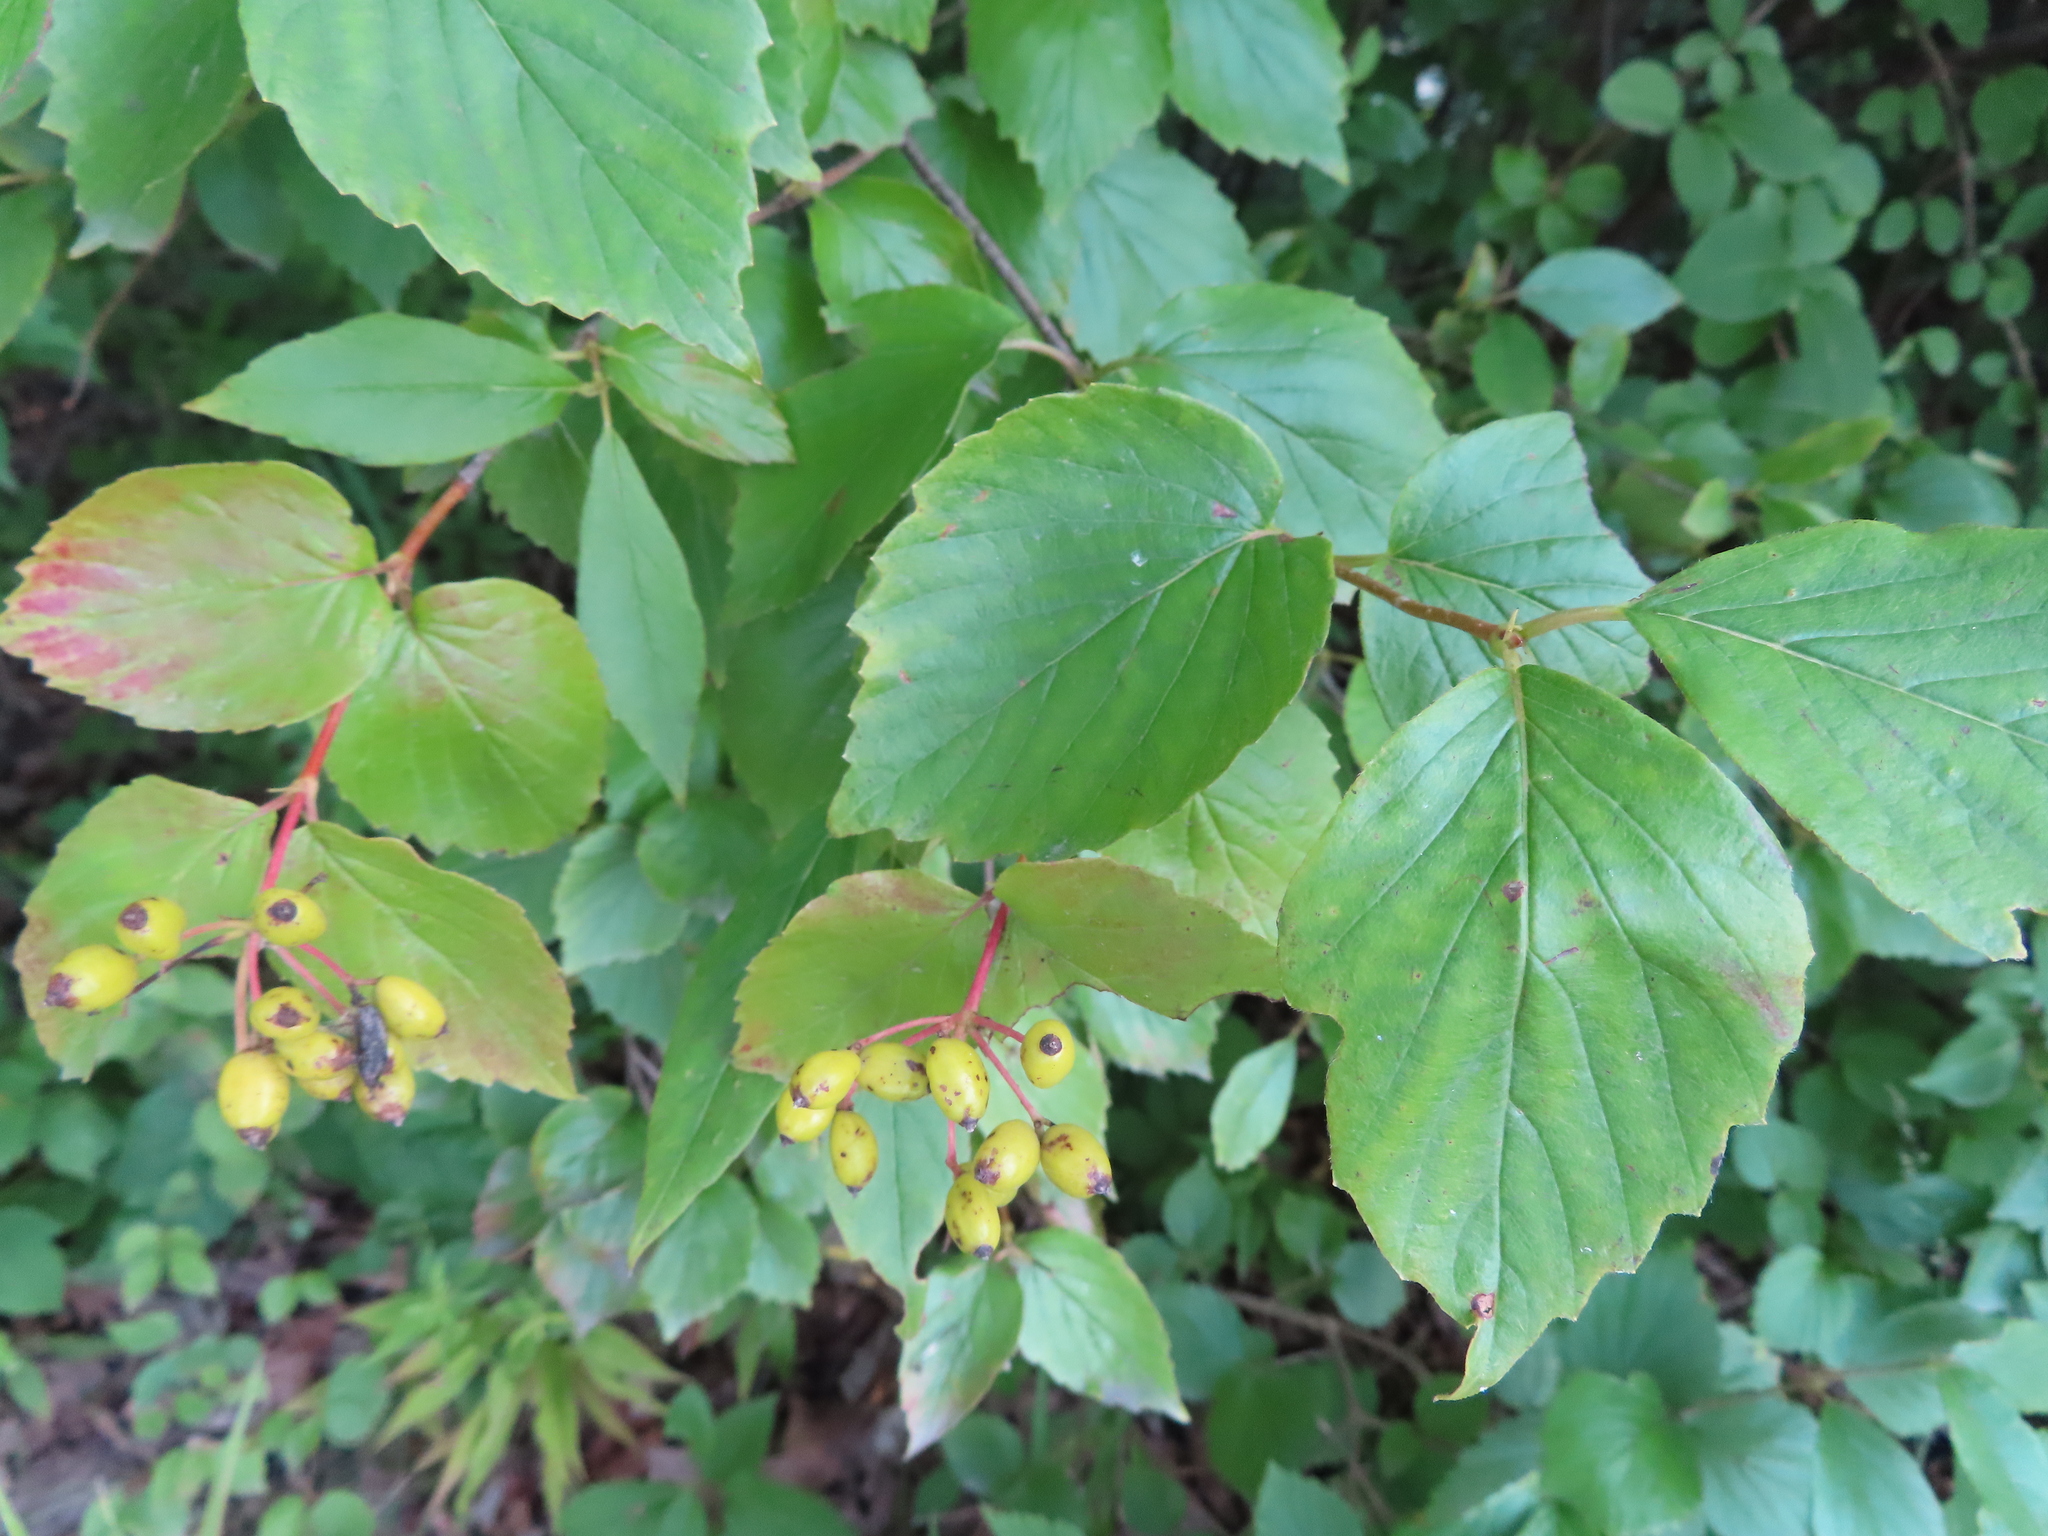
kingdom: Plantae
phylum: Tracheophyta
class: Magnoliopsida
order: Dipsacales
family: Viburnaceae
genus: Viburnum
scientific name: Viburnum rafinesqueanum
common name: Downy arrow-wood
